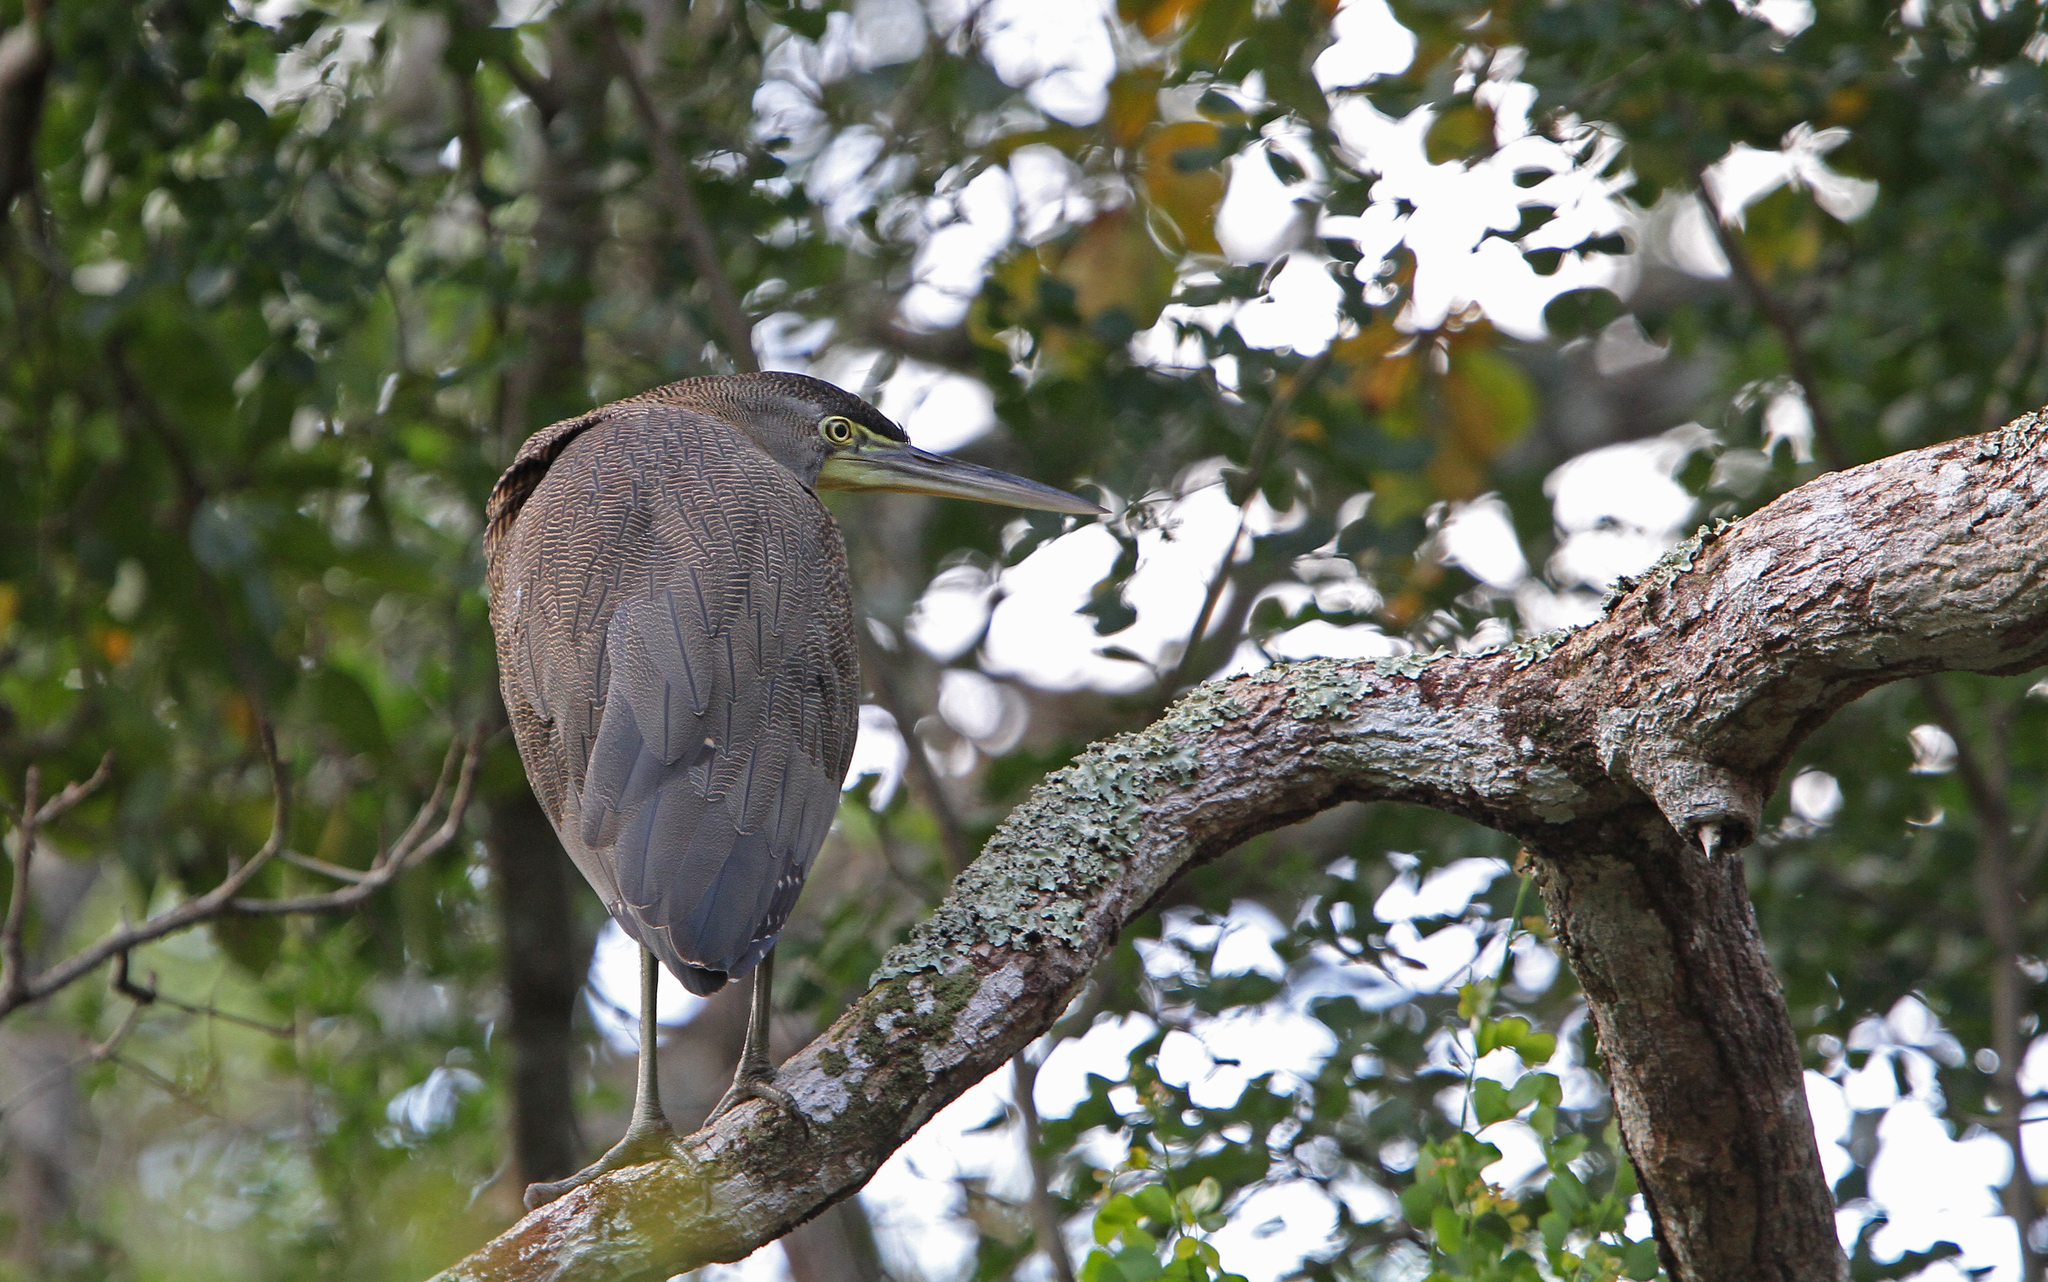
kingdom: Animalia
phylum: Chordata
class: Aves
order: Pelecaniformes
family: Ardeidae
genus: Tigrisoma
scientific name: Tigrisoma mexicanum
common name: Bare-throated tiger-heron
